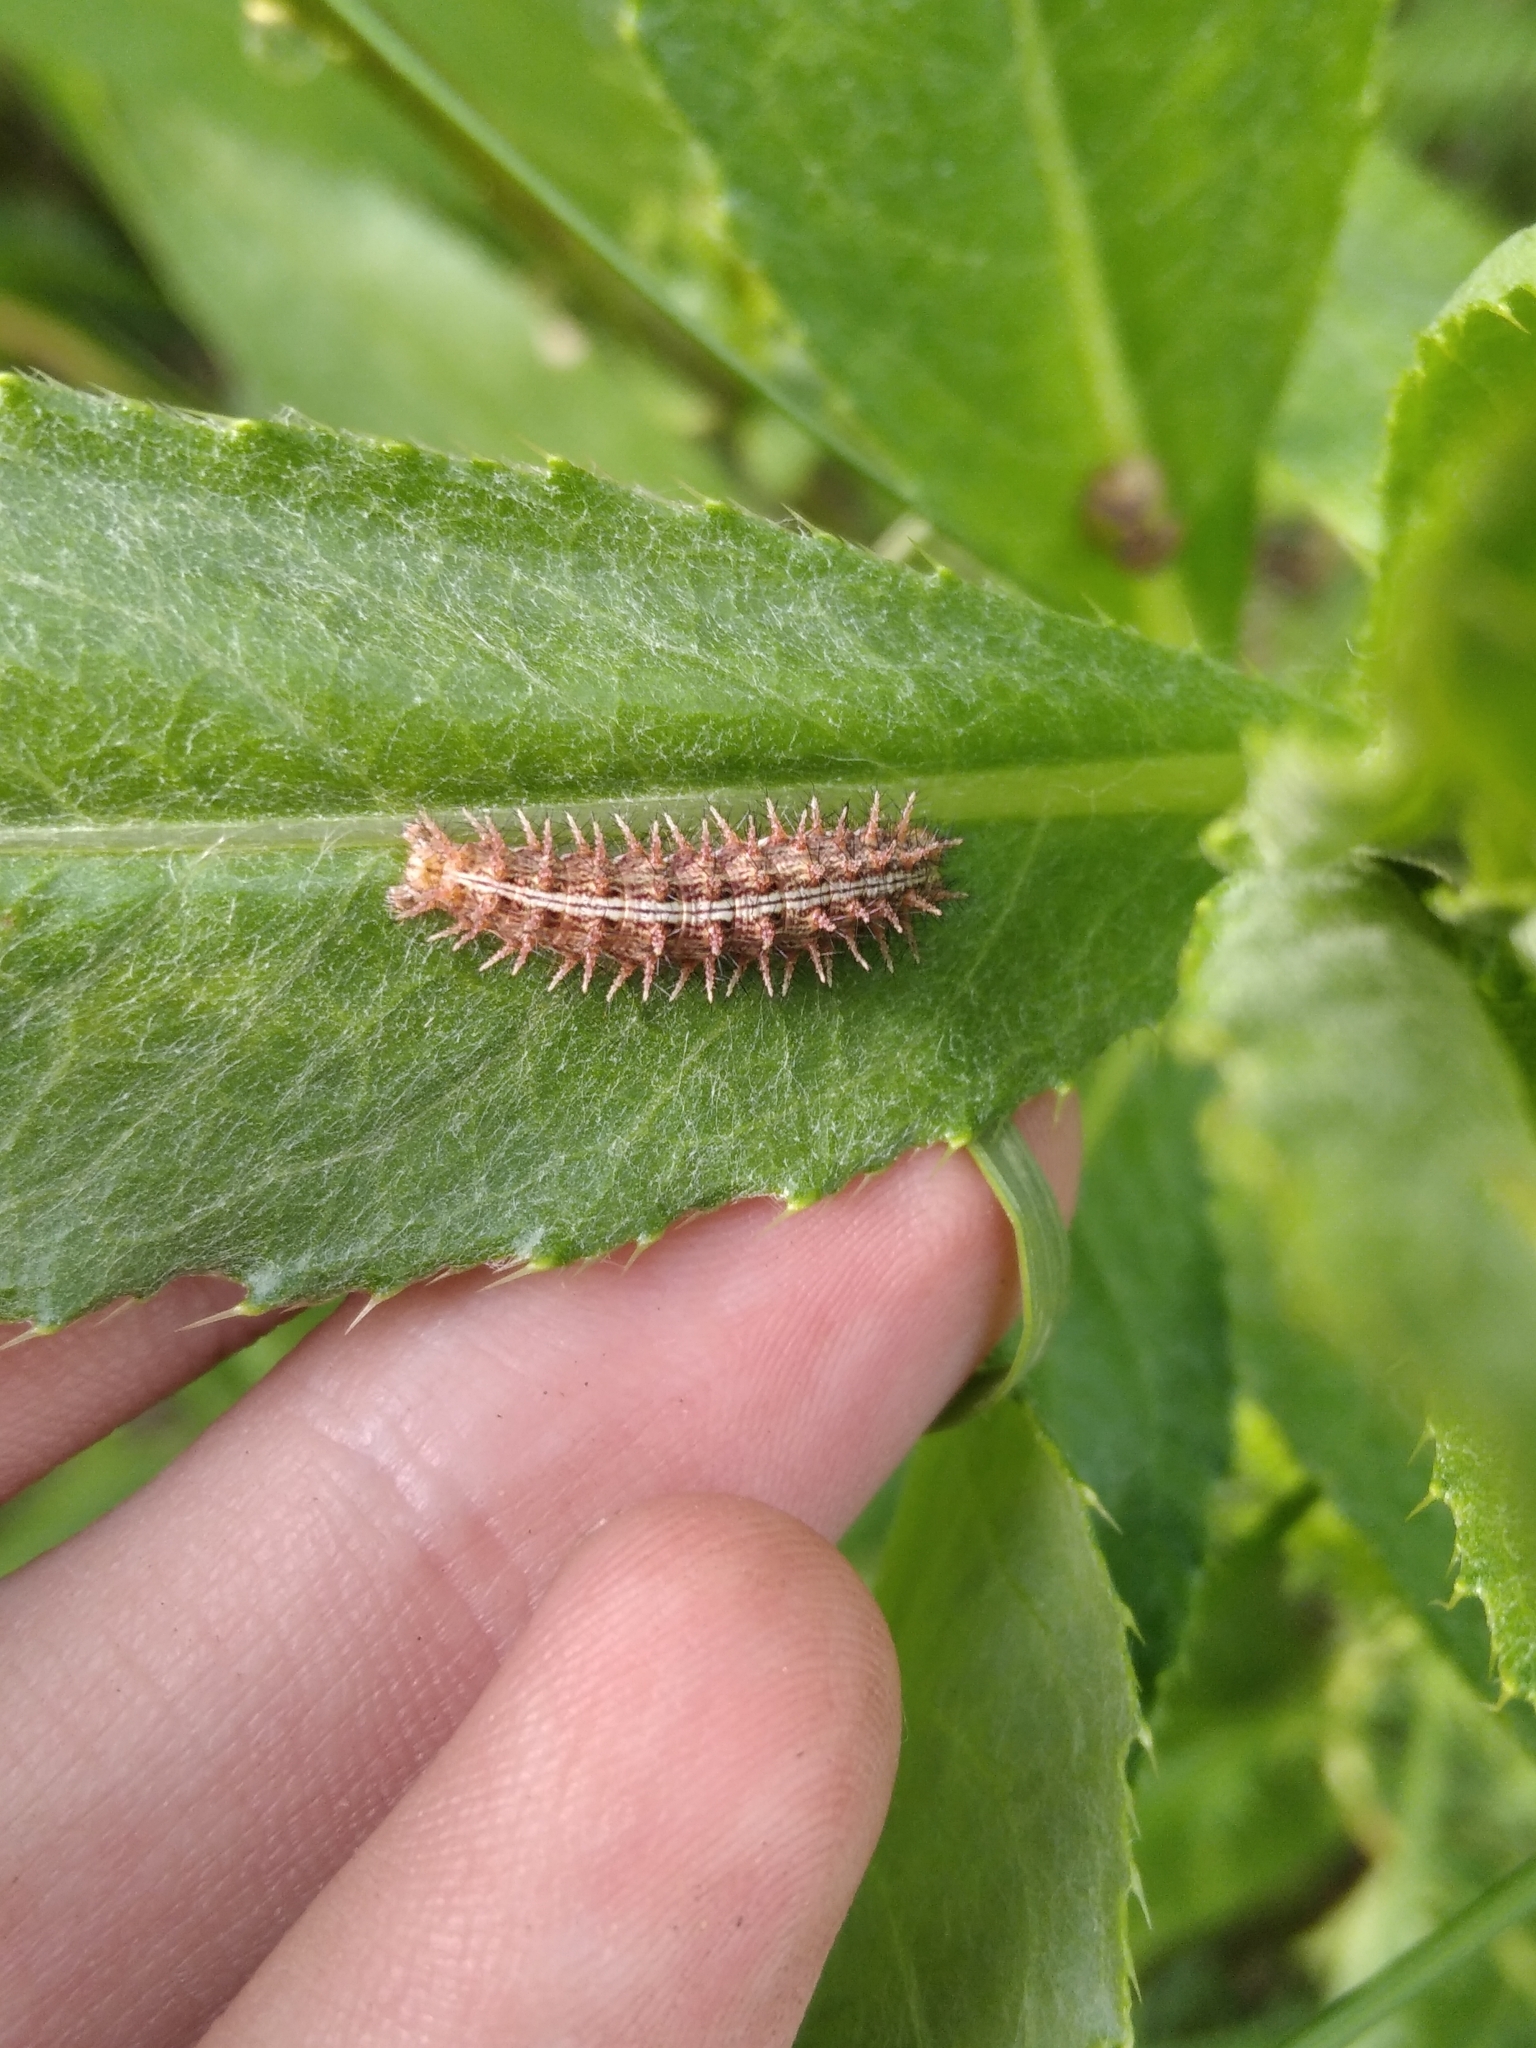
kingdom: Animalia
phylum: Arthropoda
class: Insecta
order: Lepidoptera
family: Nymphalidae
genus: Melitaea
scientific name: Melitaea didyma
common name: Spotted fritillary
